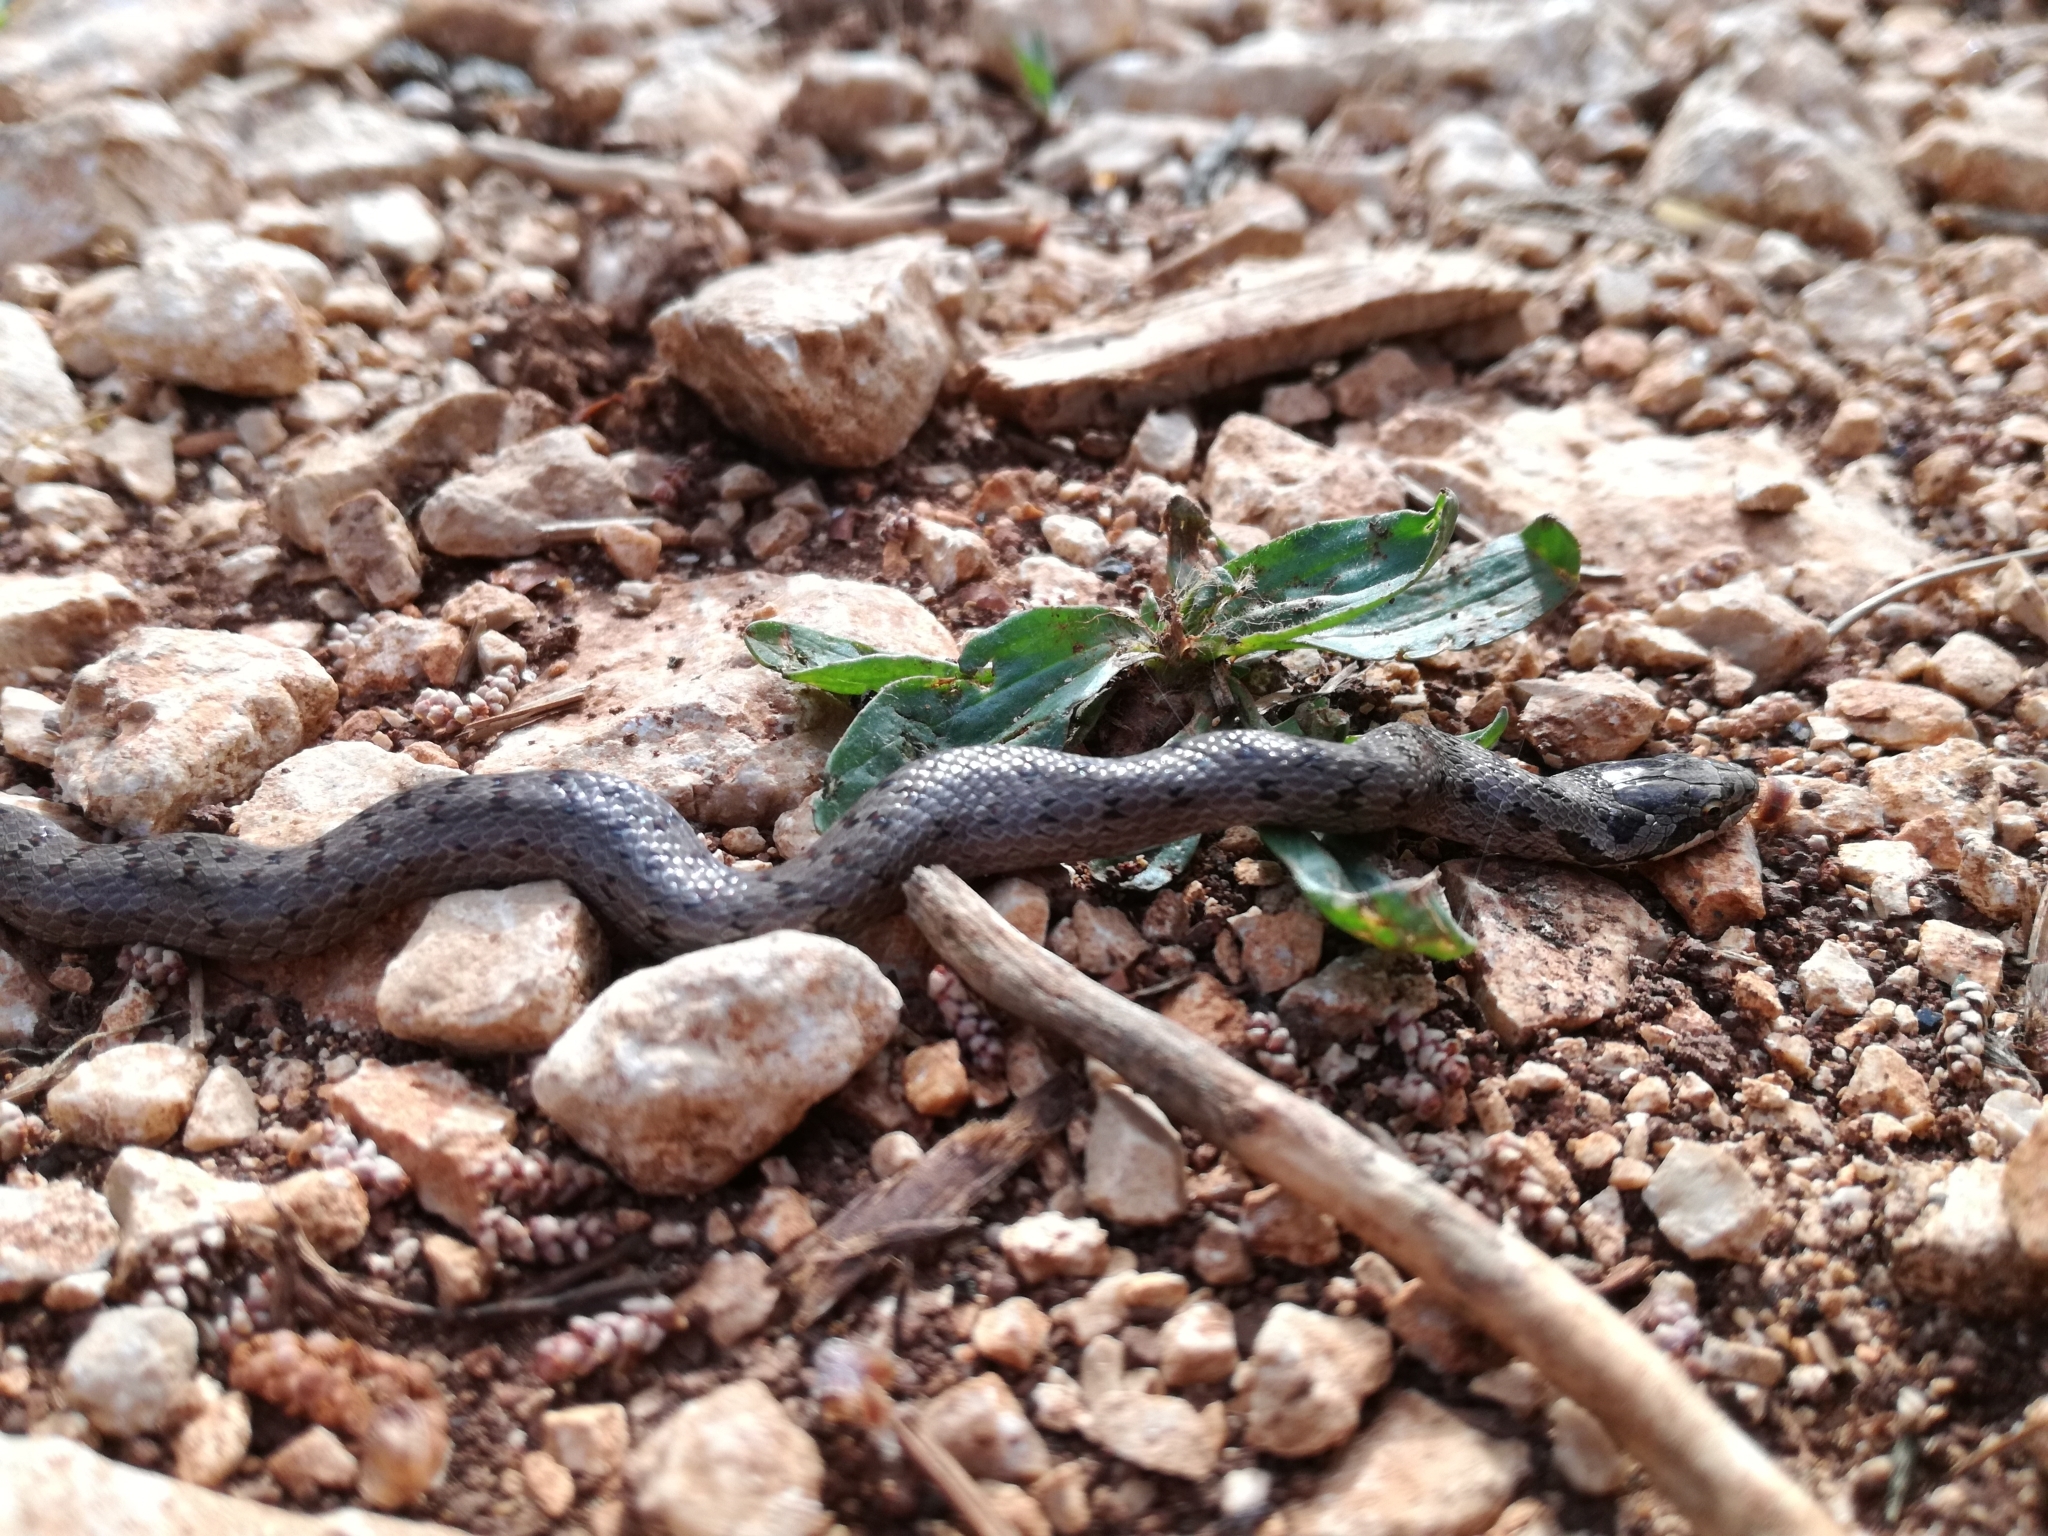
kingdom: Animalia
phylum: Chordata
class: Squamata
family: Colubridae
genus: Coronella
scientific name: Coronella austriaca
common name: Smooth snake
